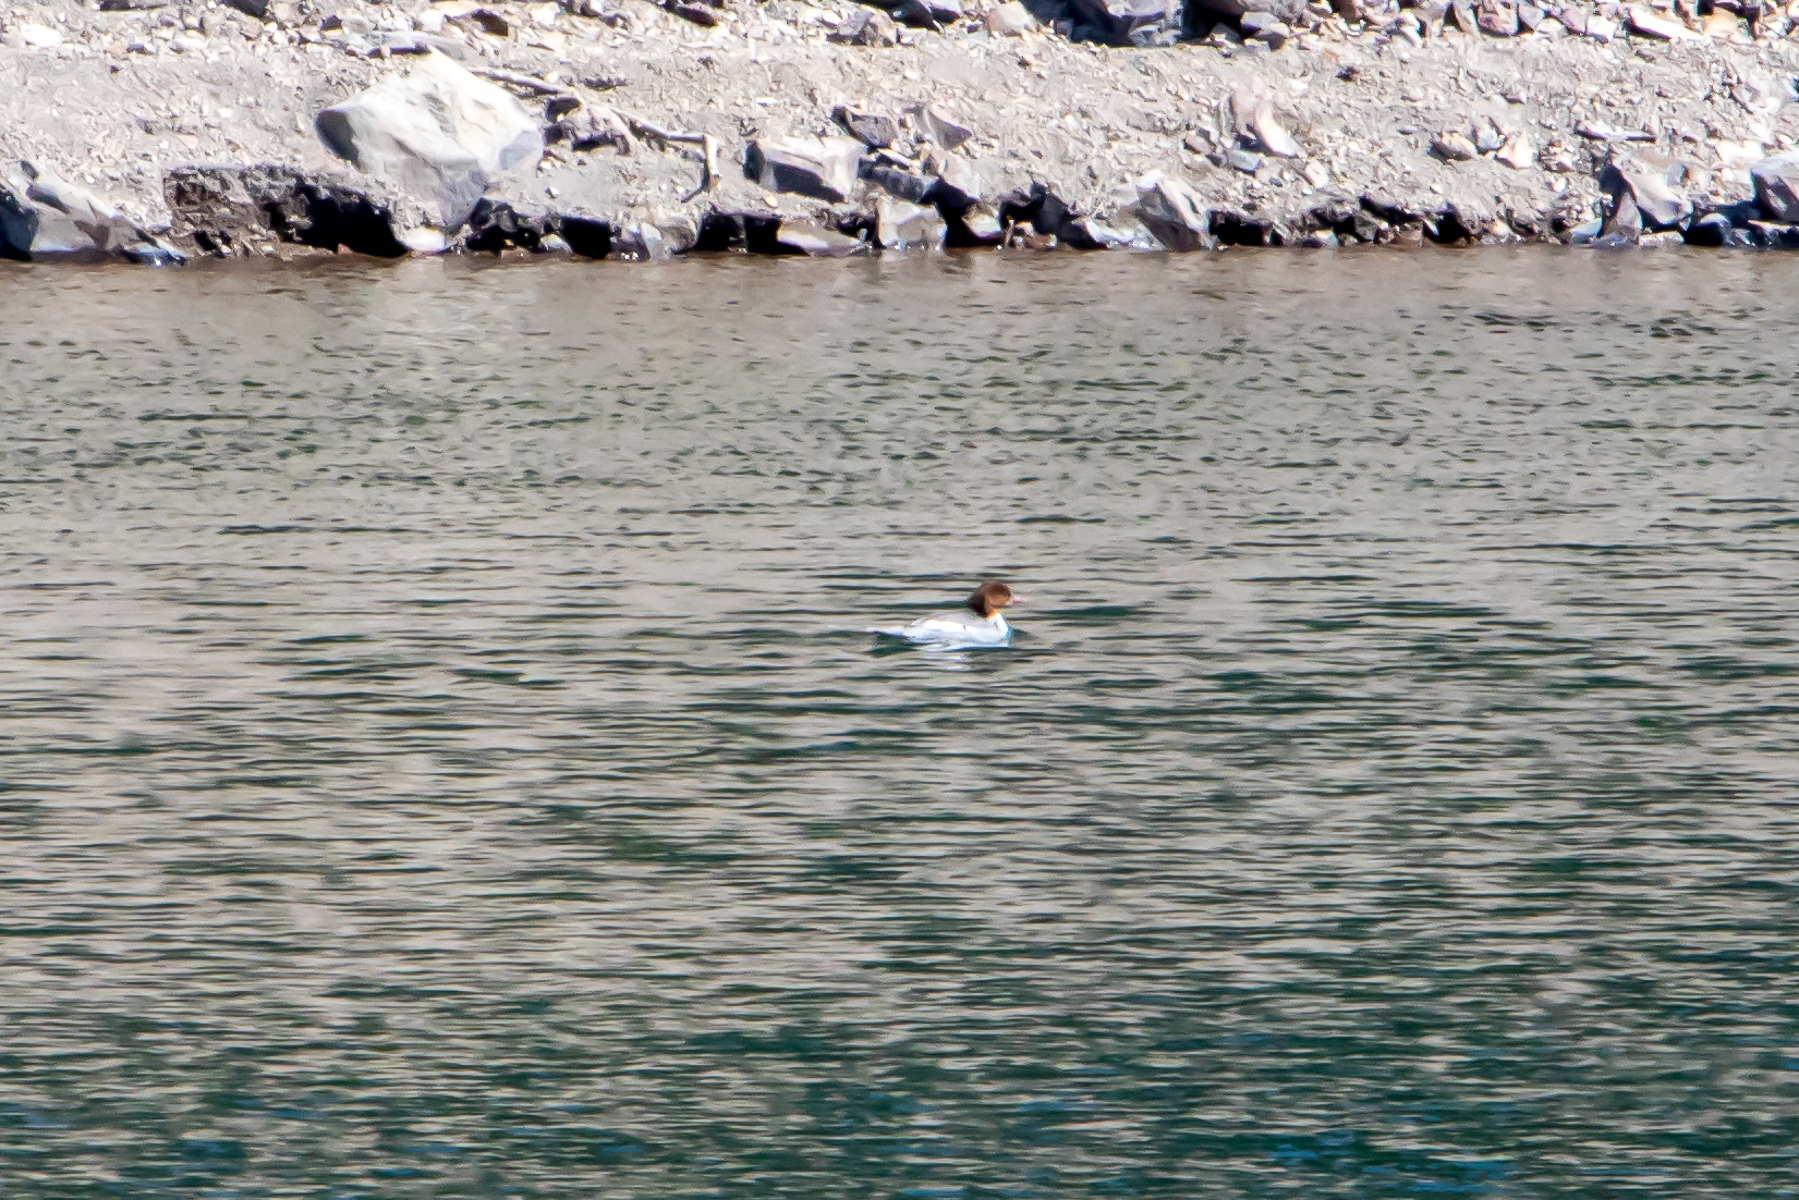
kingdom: Animalia
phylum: Chordata
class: Aves
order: Anseriformes
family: Anatidae
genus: Mergus
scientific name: Mergus merganser
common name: Common merganser
